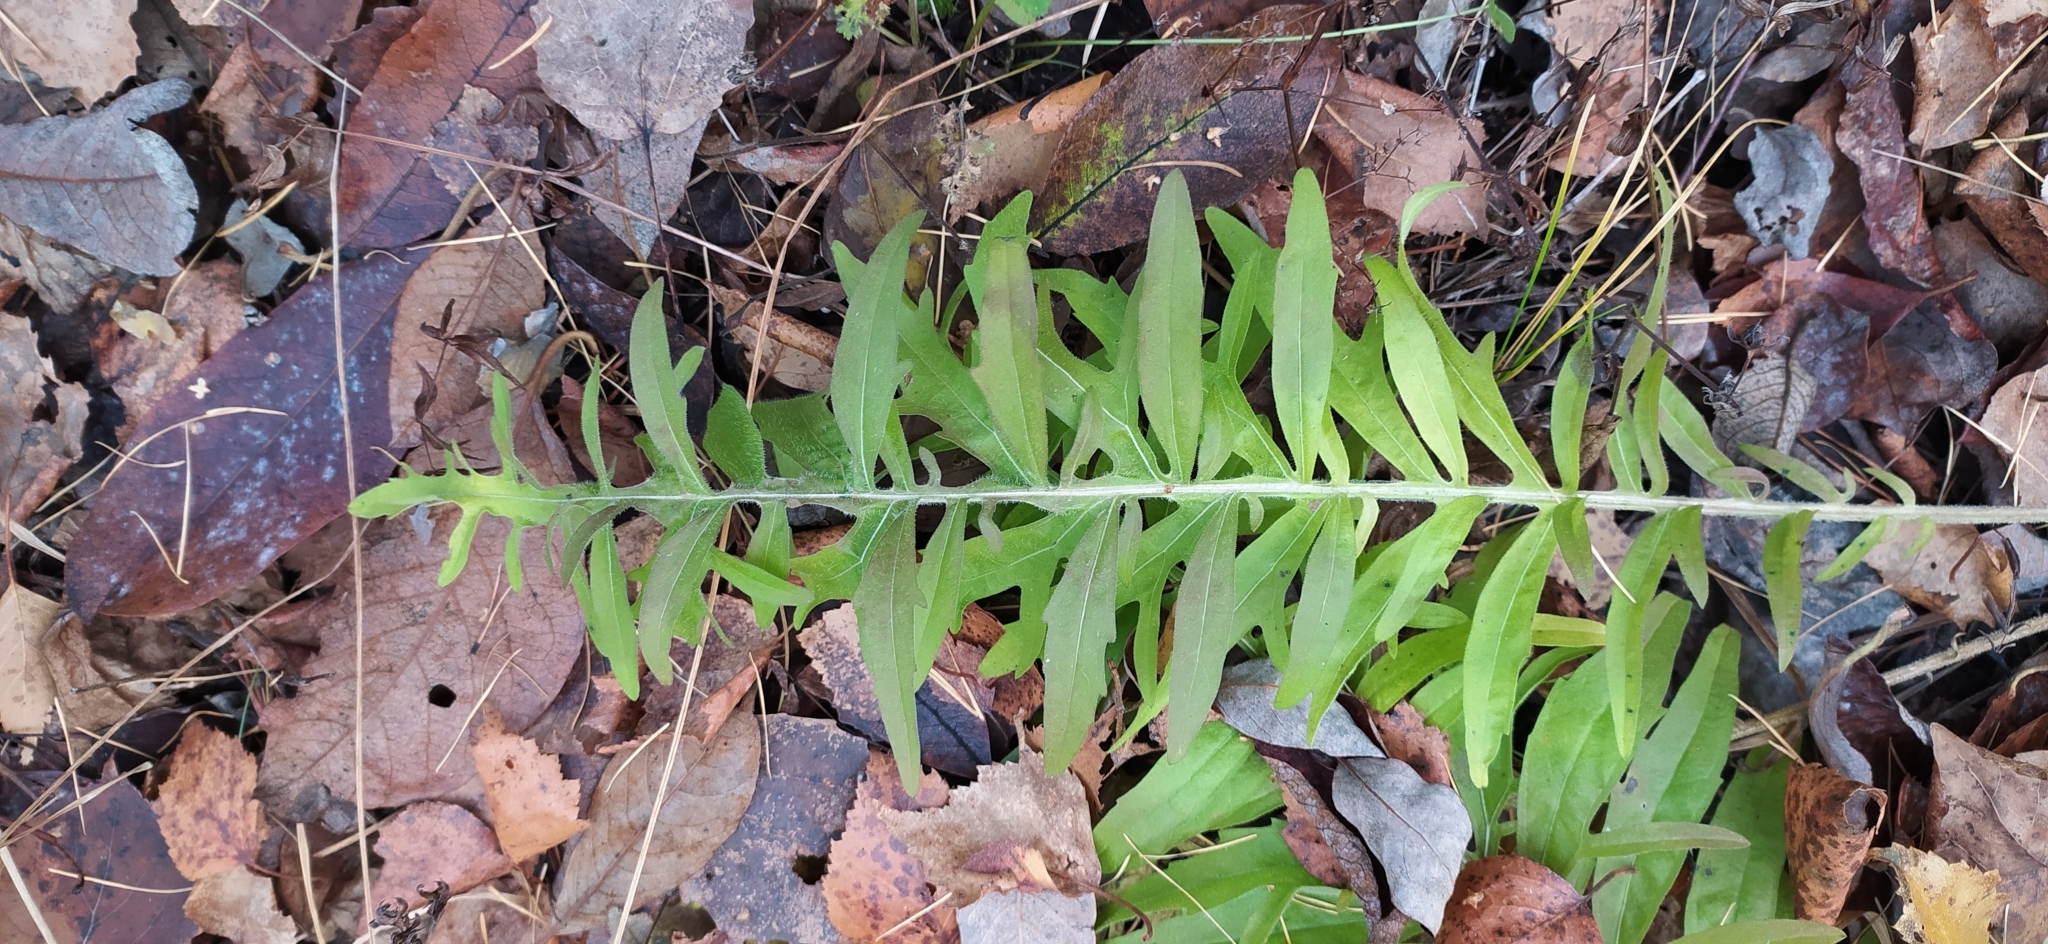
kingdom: Plantae
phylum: Tracheophyta
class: Magnoliopsida
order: Asterales
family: Asteraceae
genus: Centaurea
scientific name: Centaurea scabiosa
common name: Greater knapweed
